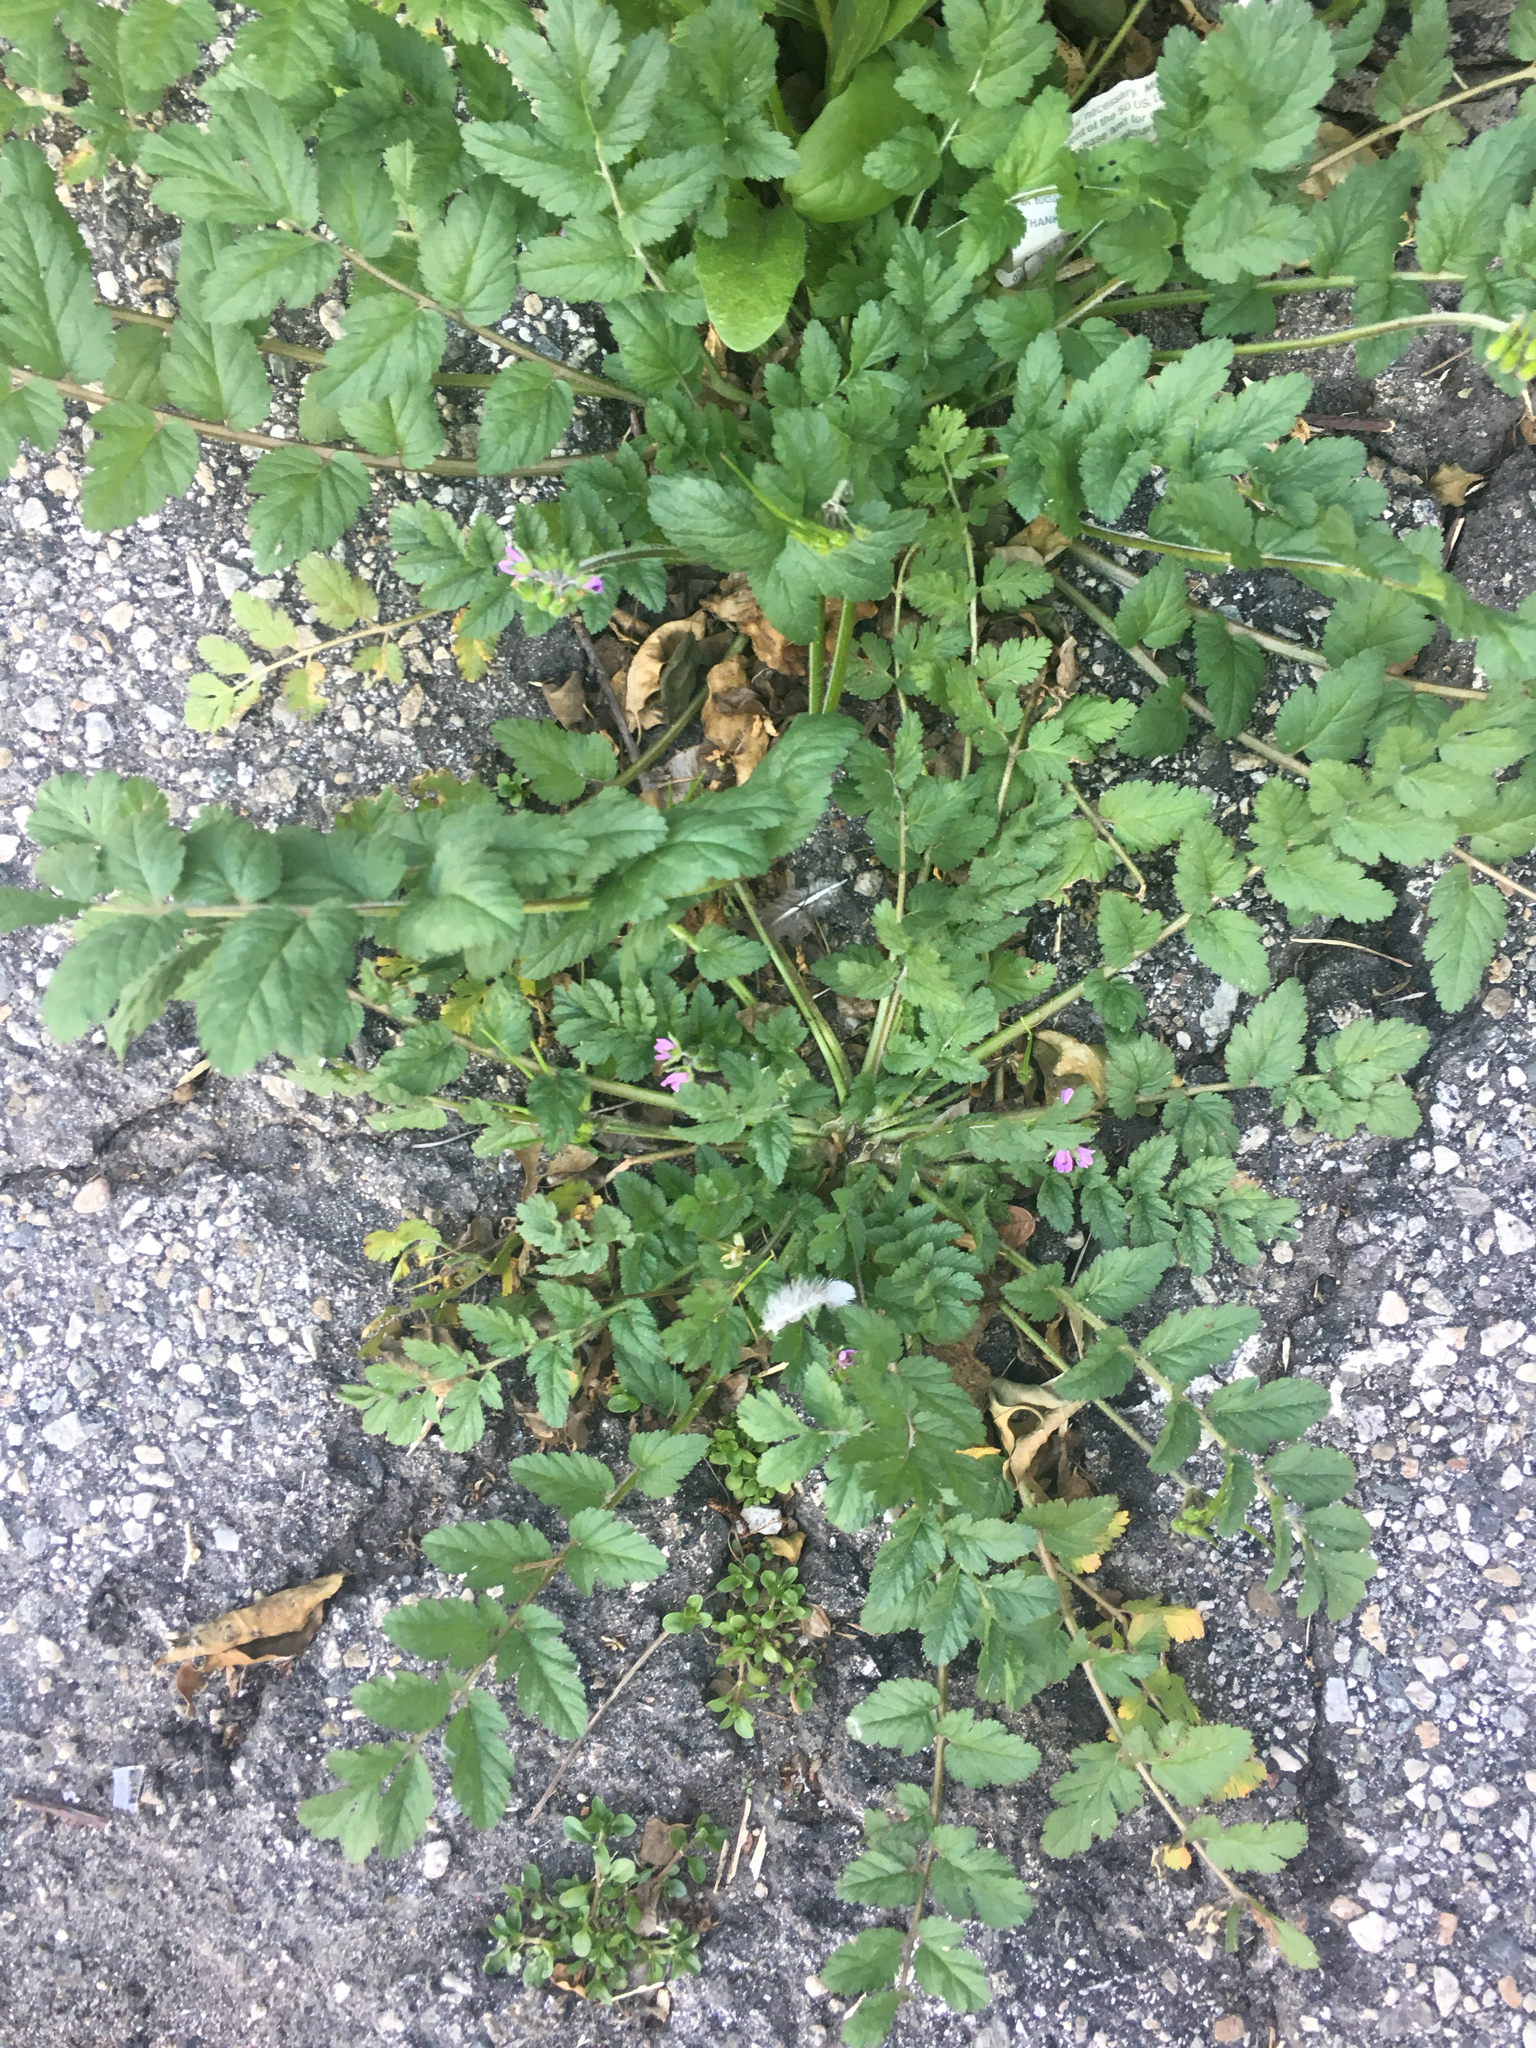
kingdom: Plantae
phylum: Tracheophyta
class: Magnoliopsida
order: Geraniales
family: Geraniaceae
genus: Erodium
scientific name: Erodium moschatum
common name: Musk stork's-bill
